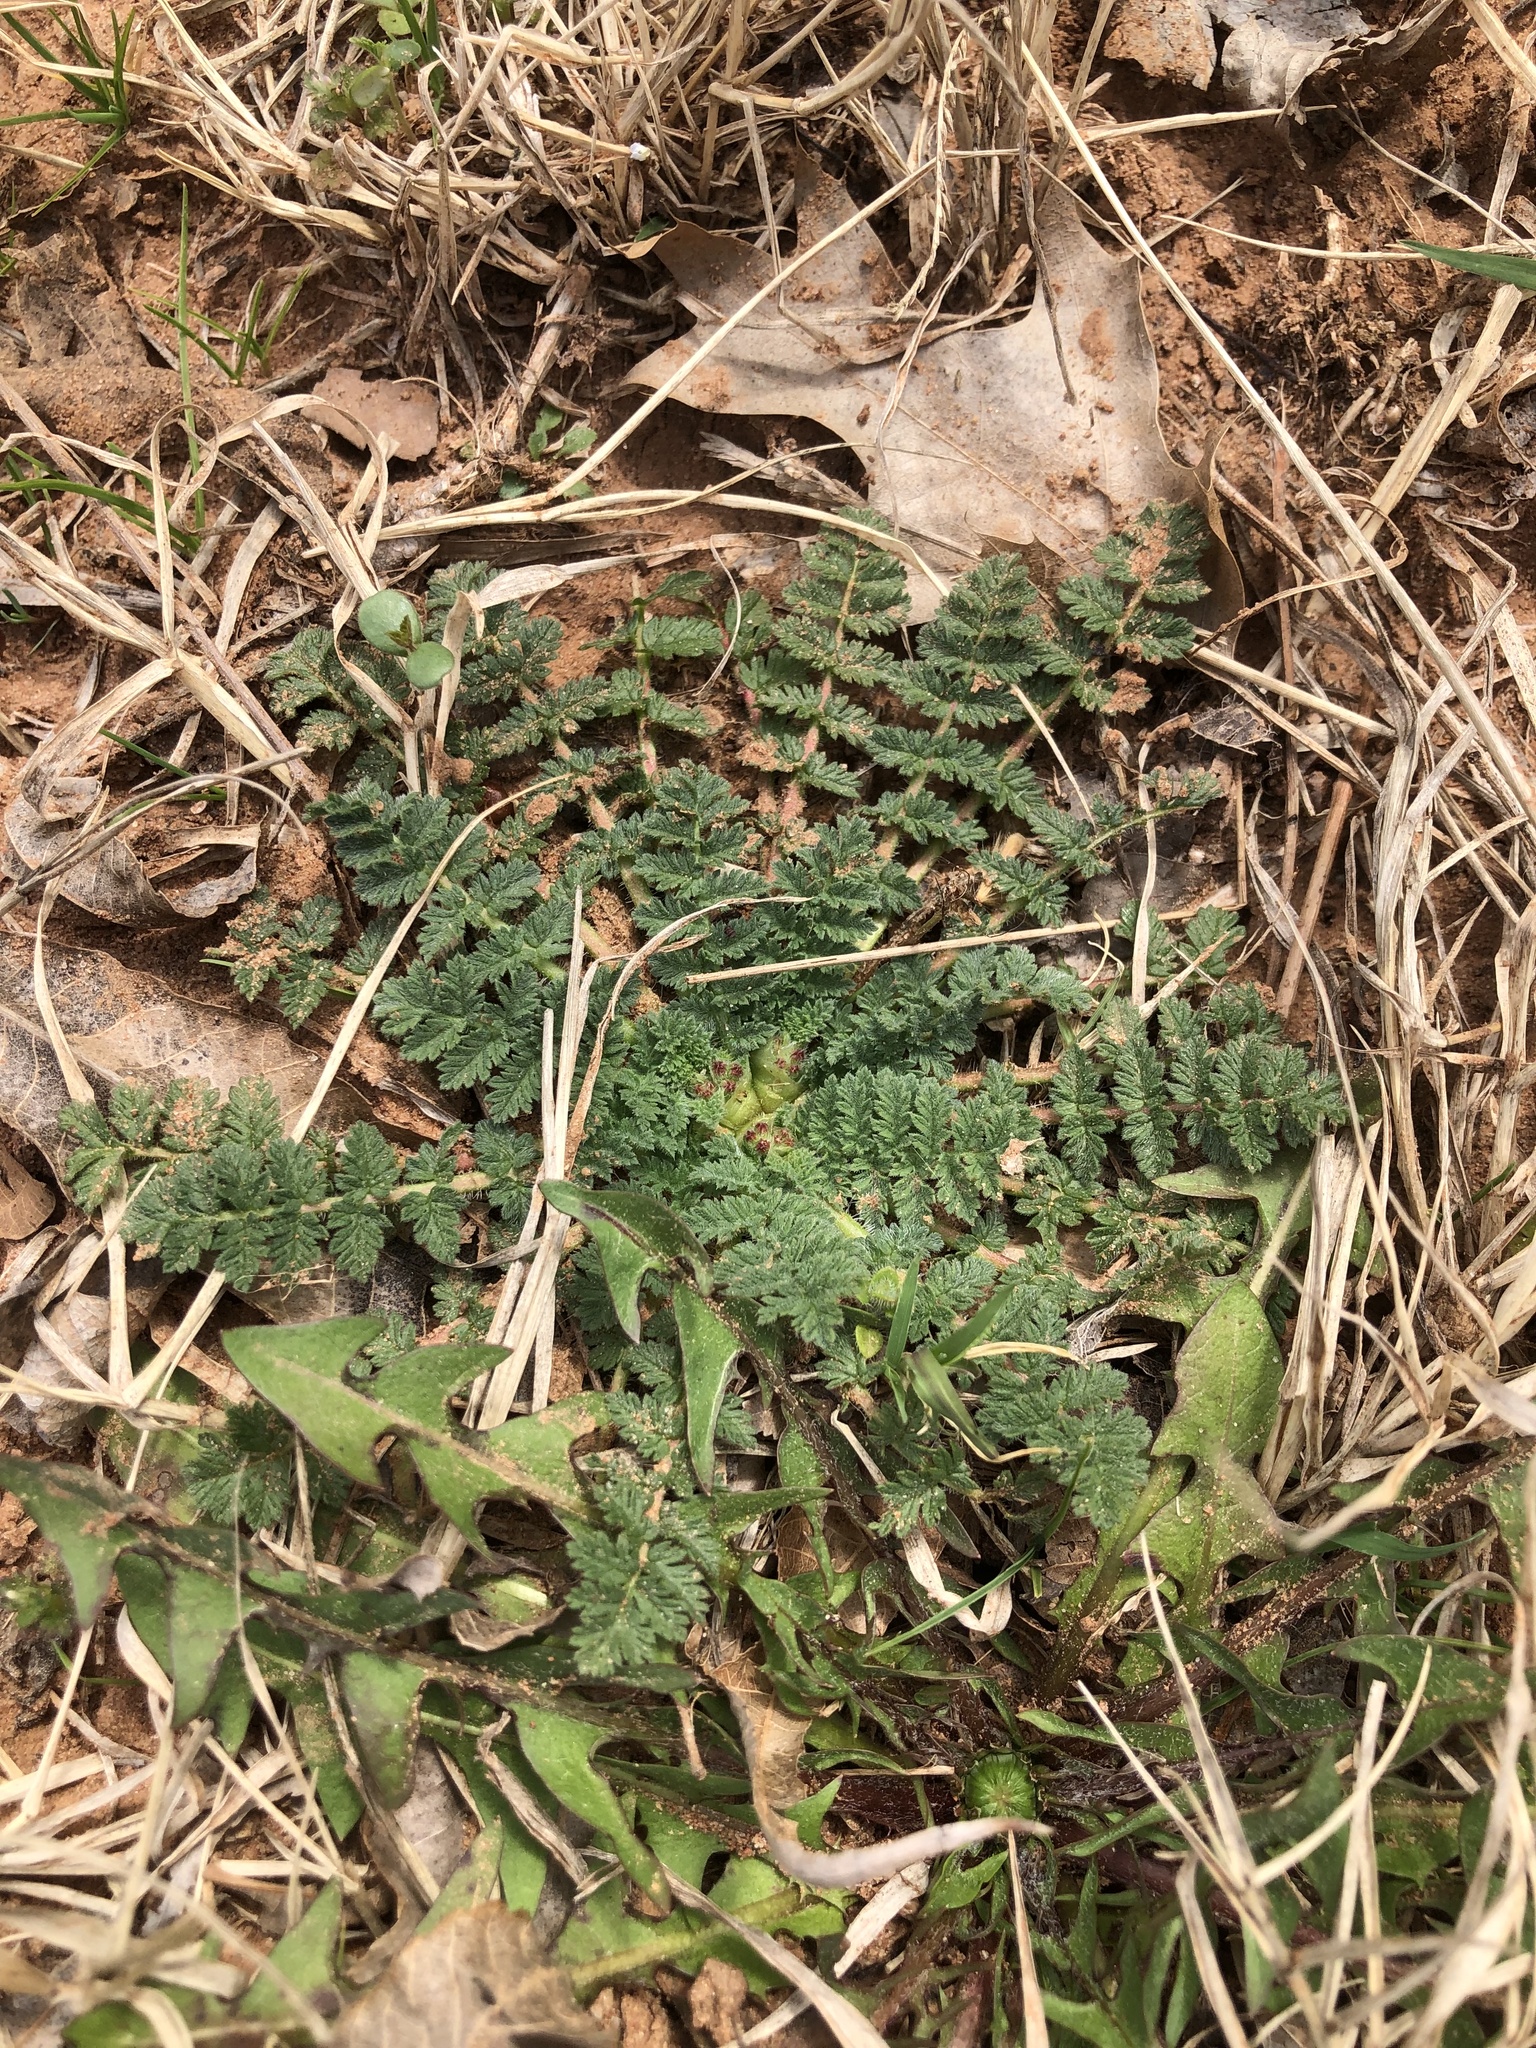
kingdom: Plantae
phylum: Tracheophyta
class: Magnoliopsida
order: Geraniales
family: Geraniaceae
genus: Erodium
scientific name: Erodium cicutarium
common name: Common stork's-bill
